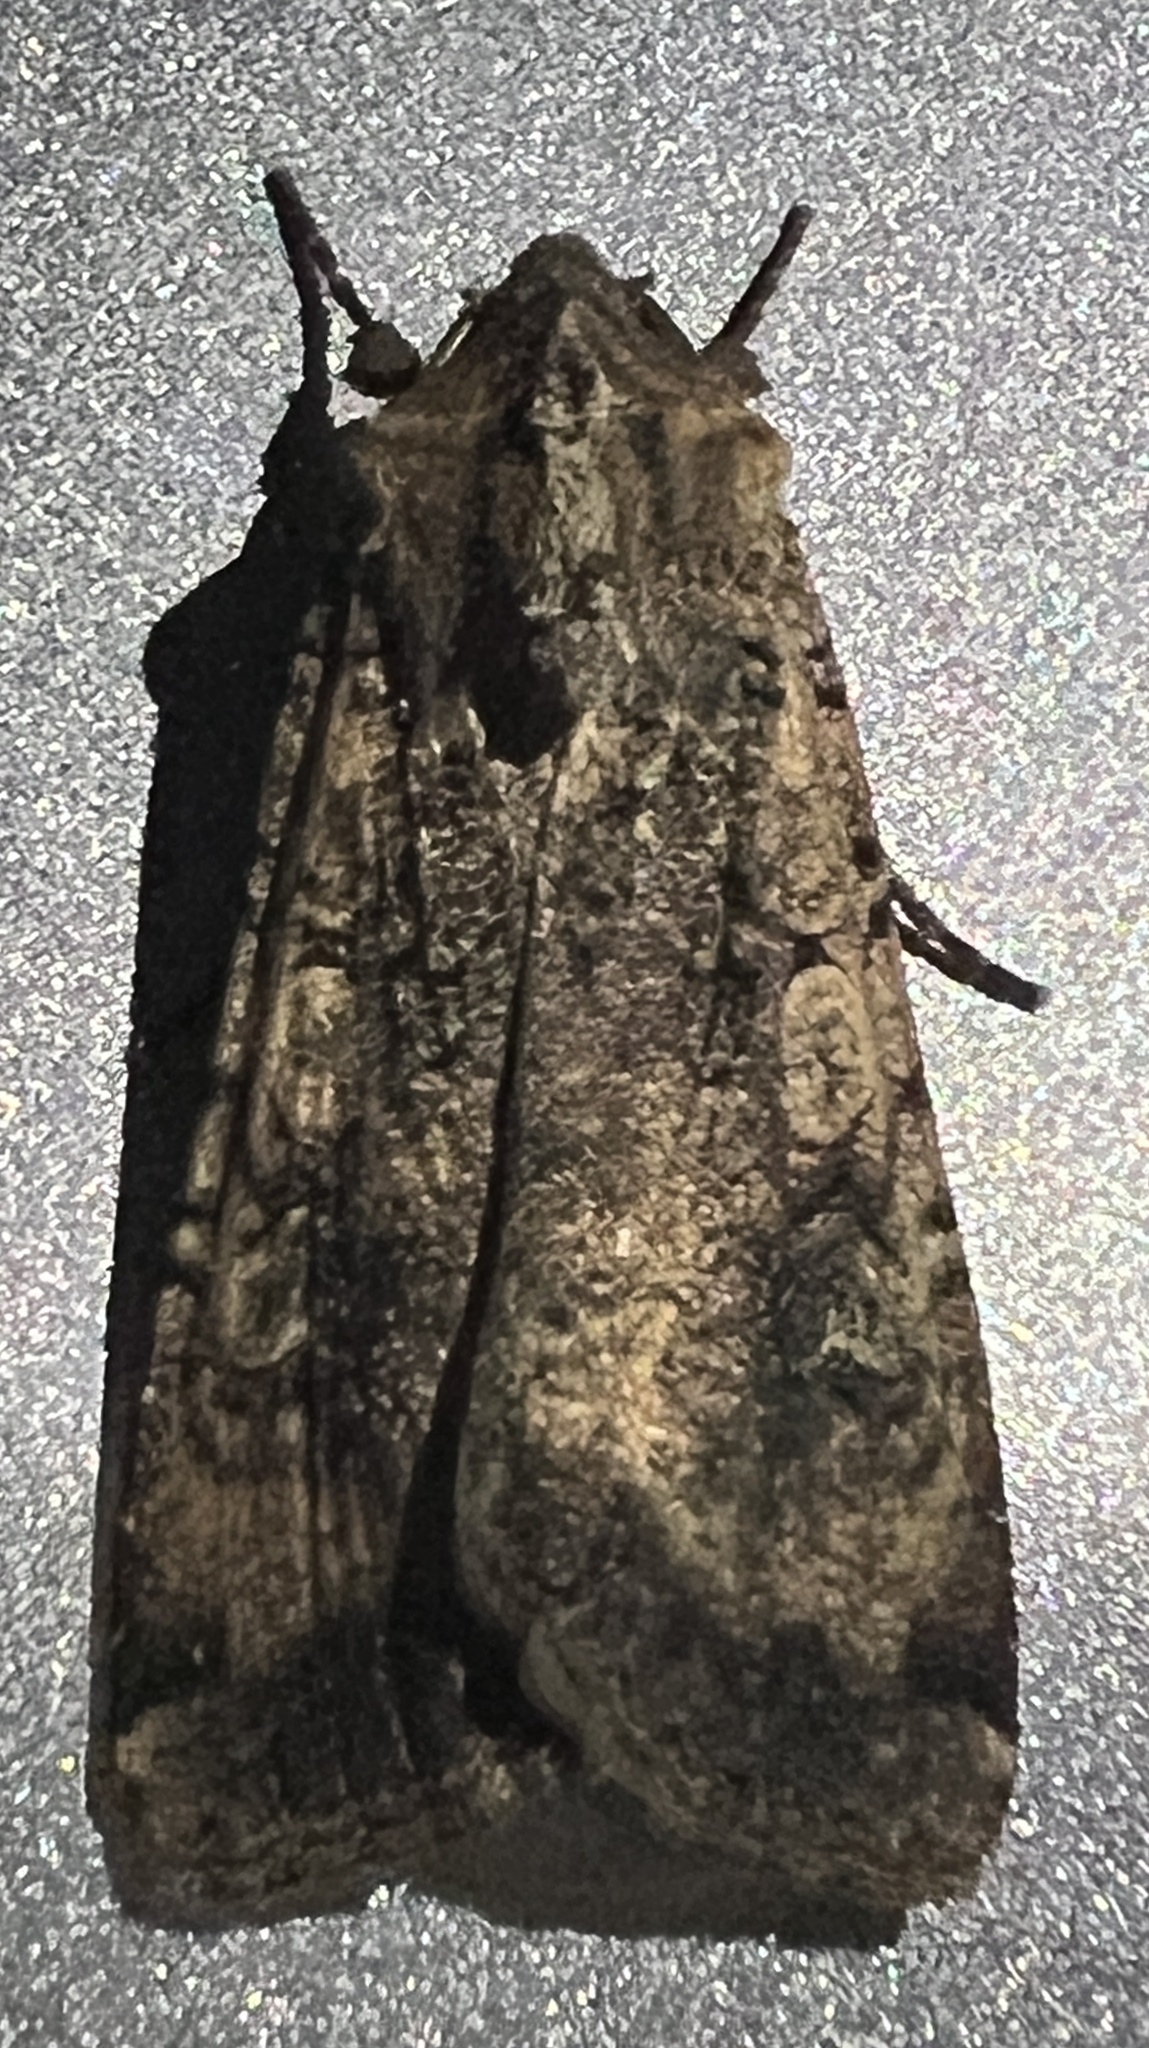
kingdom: Animalia
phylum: Arthropoda
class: Insecta
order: Lepidoptera
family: Noctuidae
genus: Peridroma
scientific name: Peridroma saucia
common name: Pearly underwing
